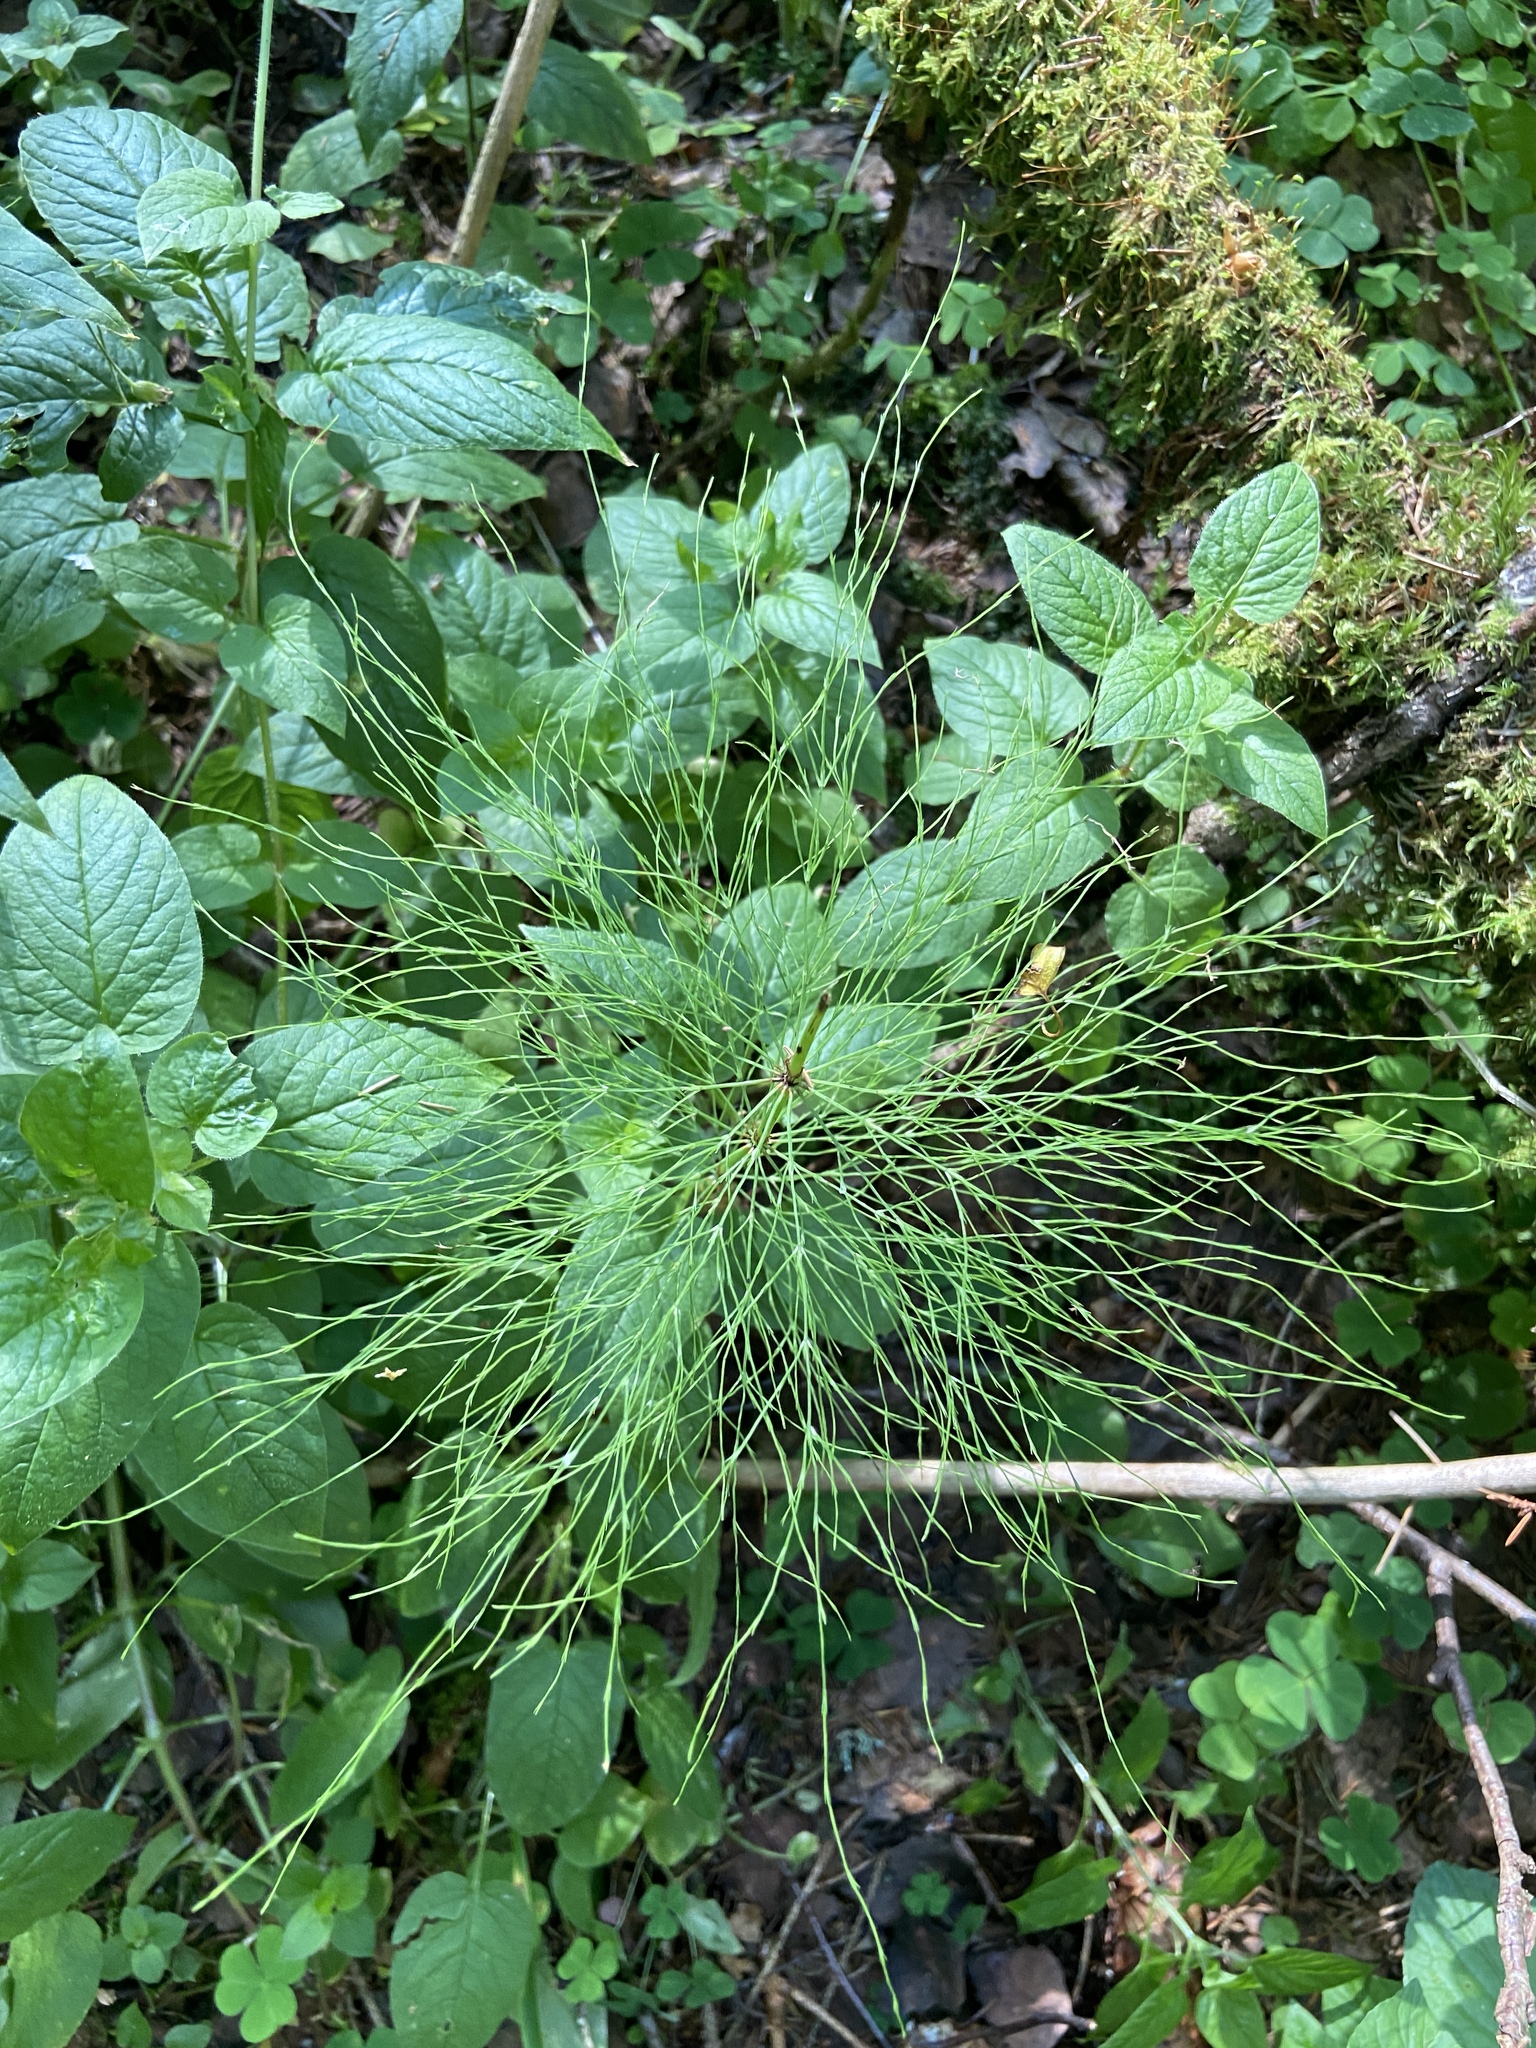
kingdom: Plantae
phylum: Tracheophyta
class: Polypodiopsida
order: Equisetales
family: Equisetaceae
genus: Equisetum
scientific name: Equisetum sylvaticum
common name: Wood horsetail
